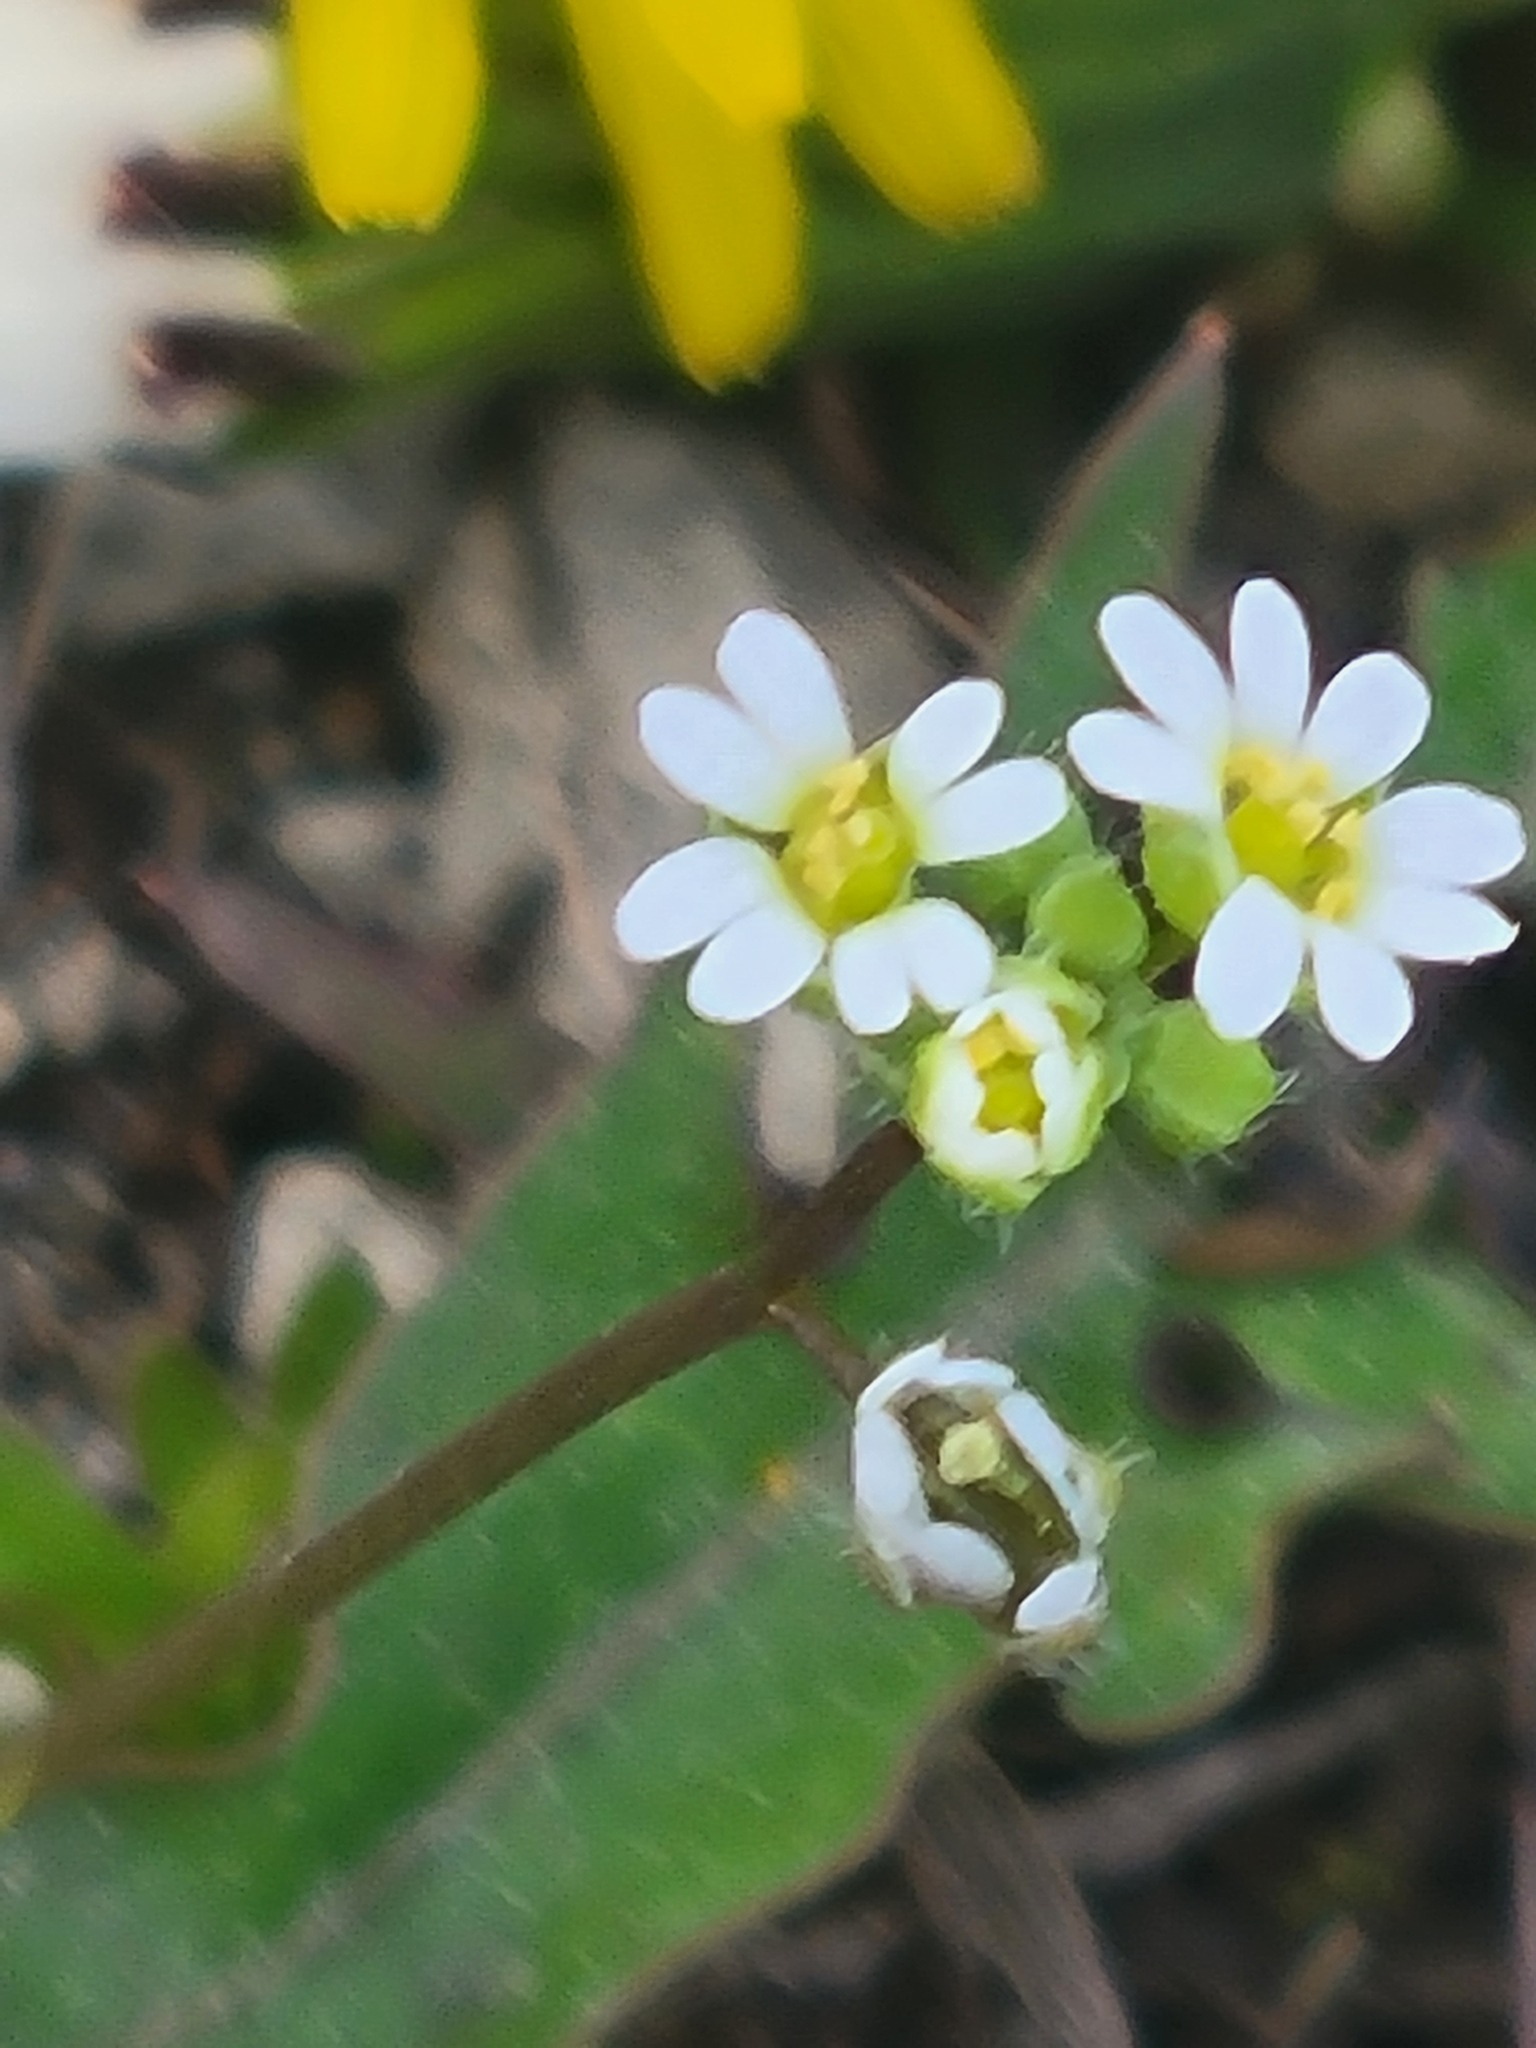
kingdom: Plantae
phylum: Tracheophyta
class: Magnoliopsida
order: Brassicales
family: Brassicaceae
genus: Draba
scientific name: Draba verna
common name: Spring draba
